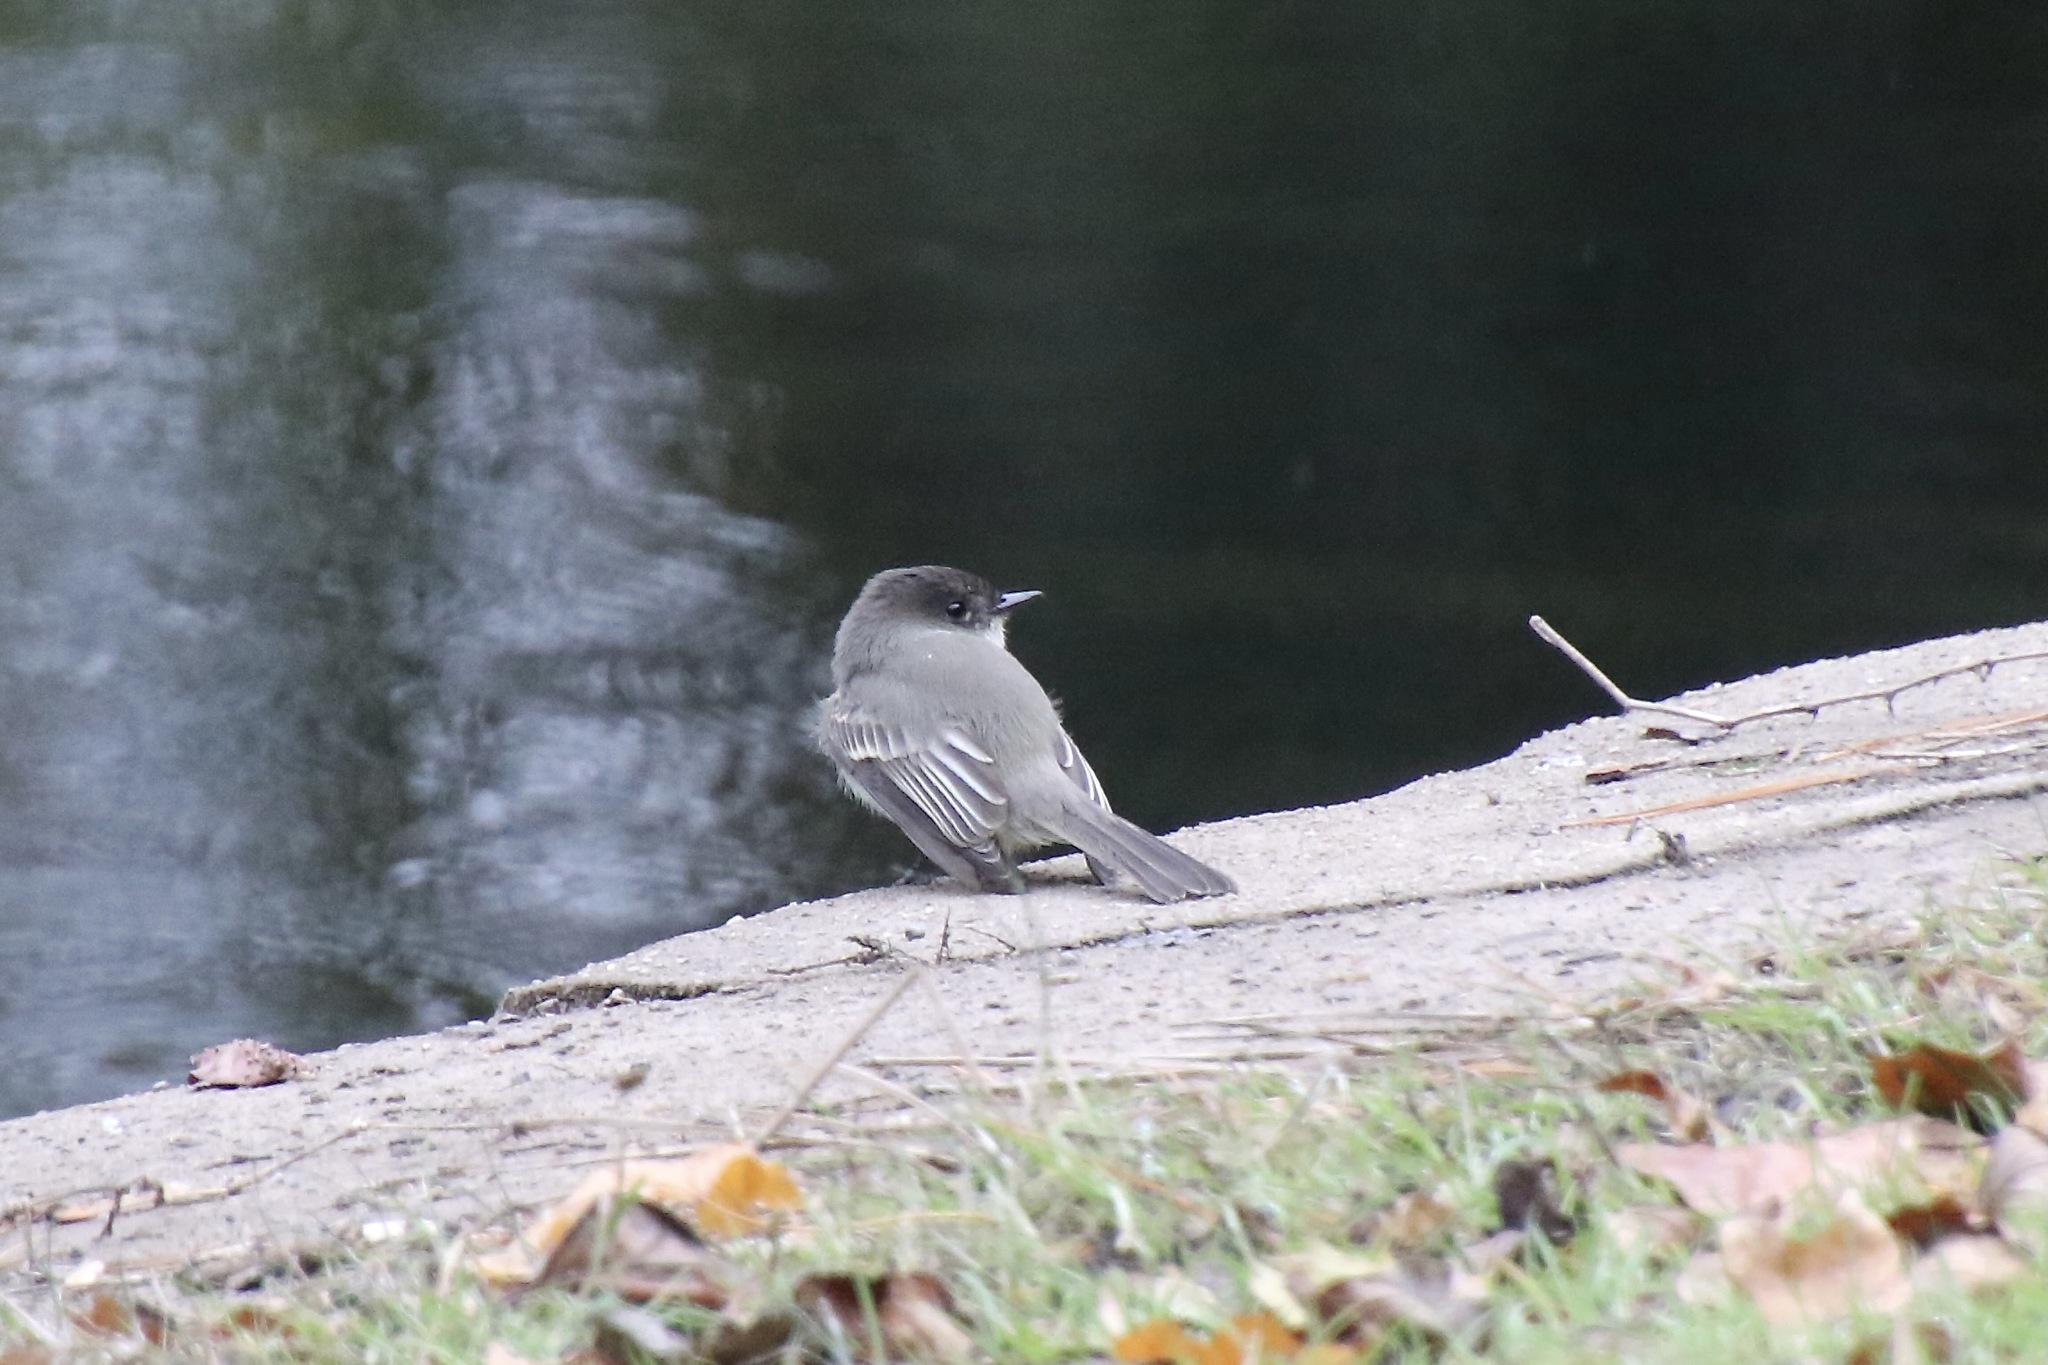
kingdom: Animalia
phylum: Chordata
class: Aves
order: Passeriformes
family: Tyrannidae
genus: Sayornis
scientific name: Sayornis phoebe
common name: Eastern phoebe
